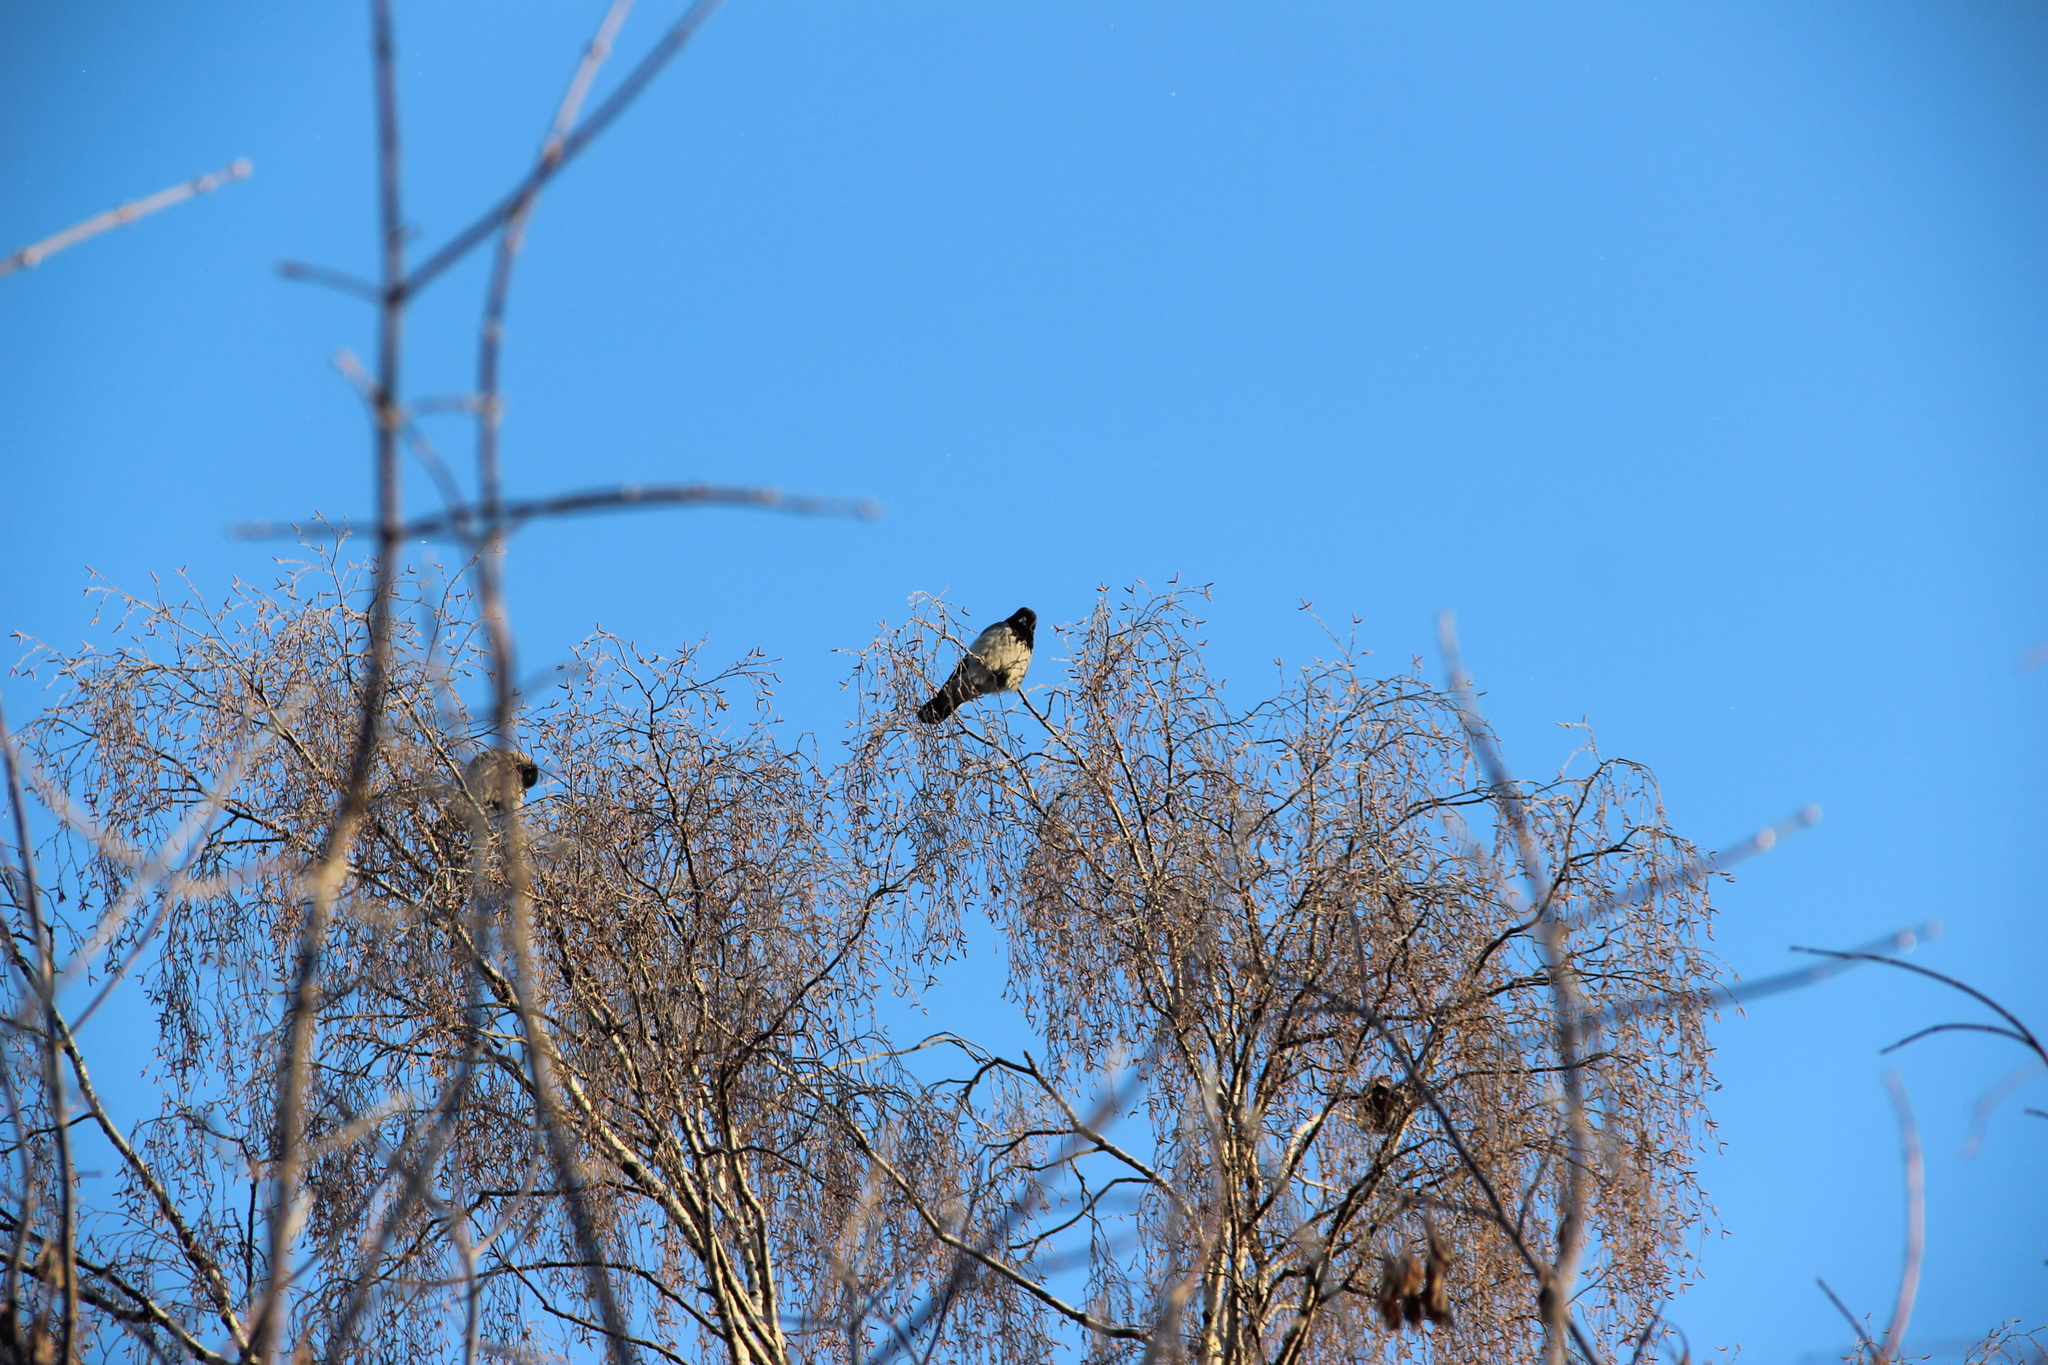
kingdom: Animalia
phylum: Chordata
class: Aves
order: Passeriformes
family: Corvidae
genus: Corvus
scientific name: Corvus cornix
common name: Hooded crow
